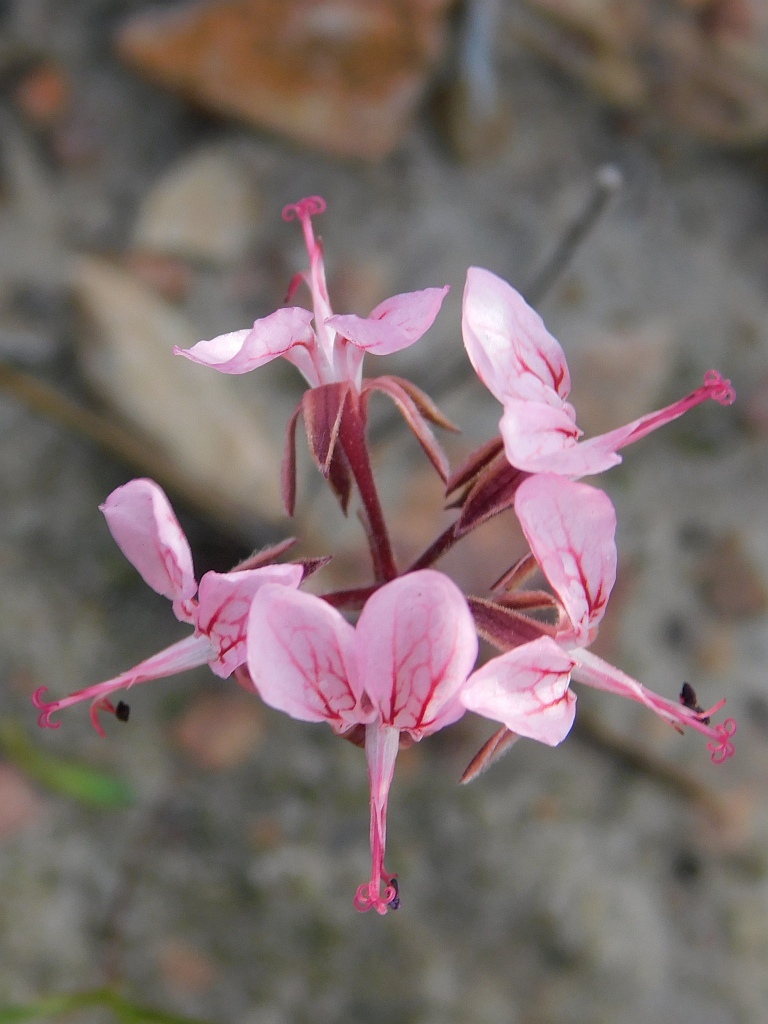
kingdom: Plantae
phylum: Tracheophyta
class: Magnoliopsida
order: Geraniales
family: Geraniaceae
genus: Pelargonium
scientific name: Pelargonium dipetalum
